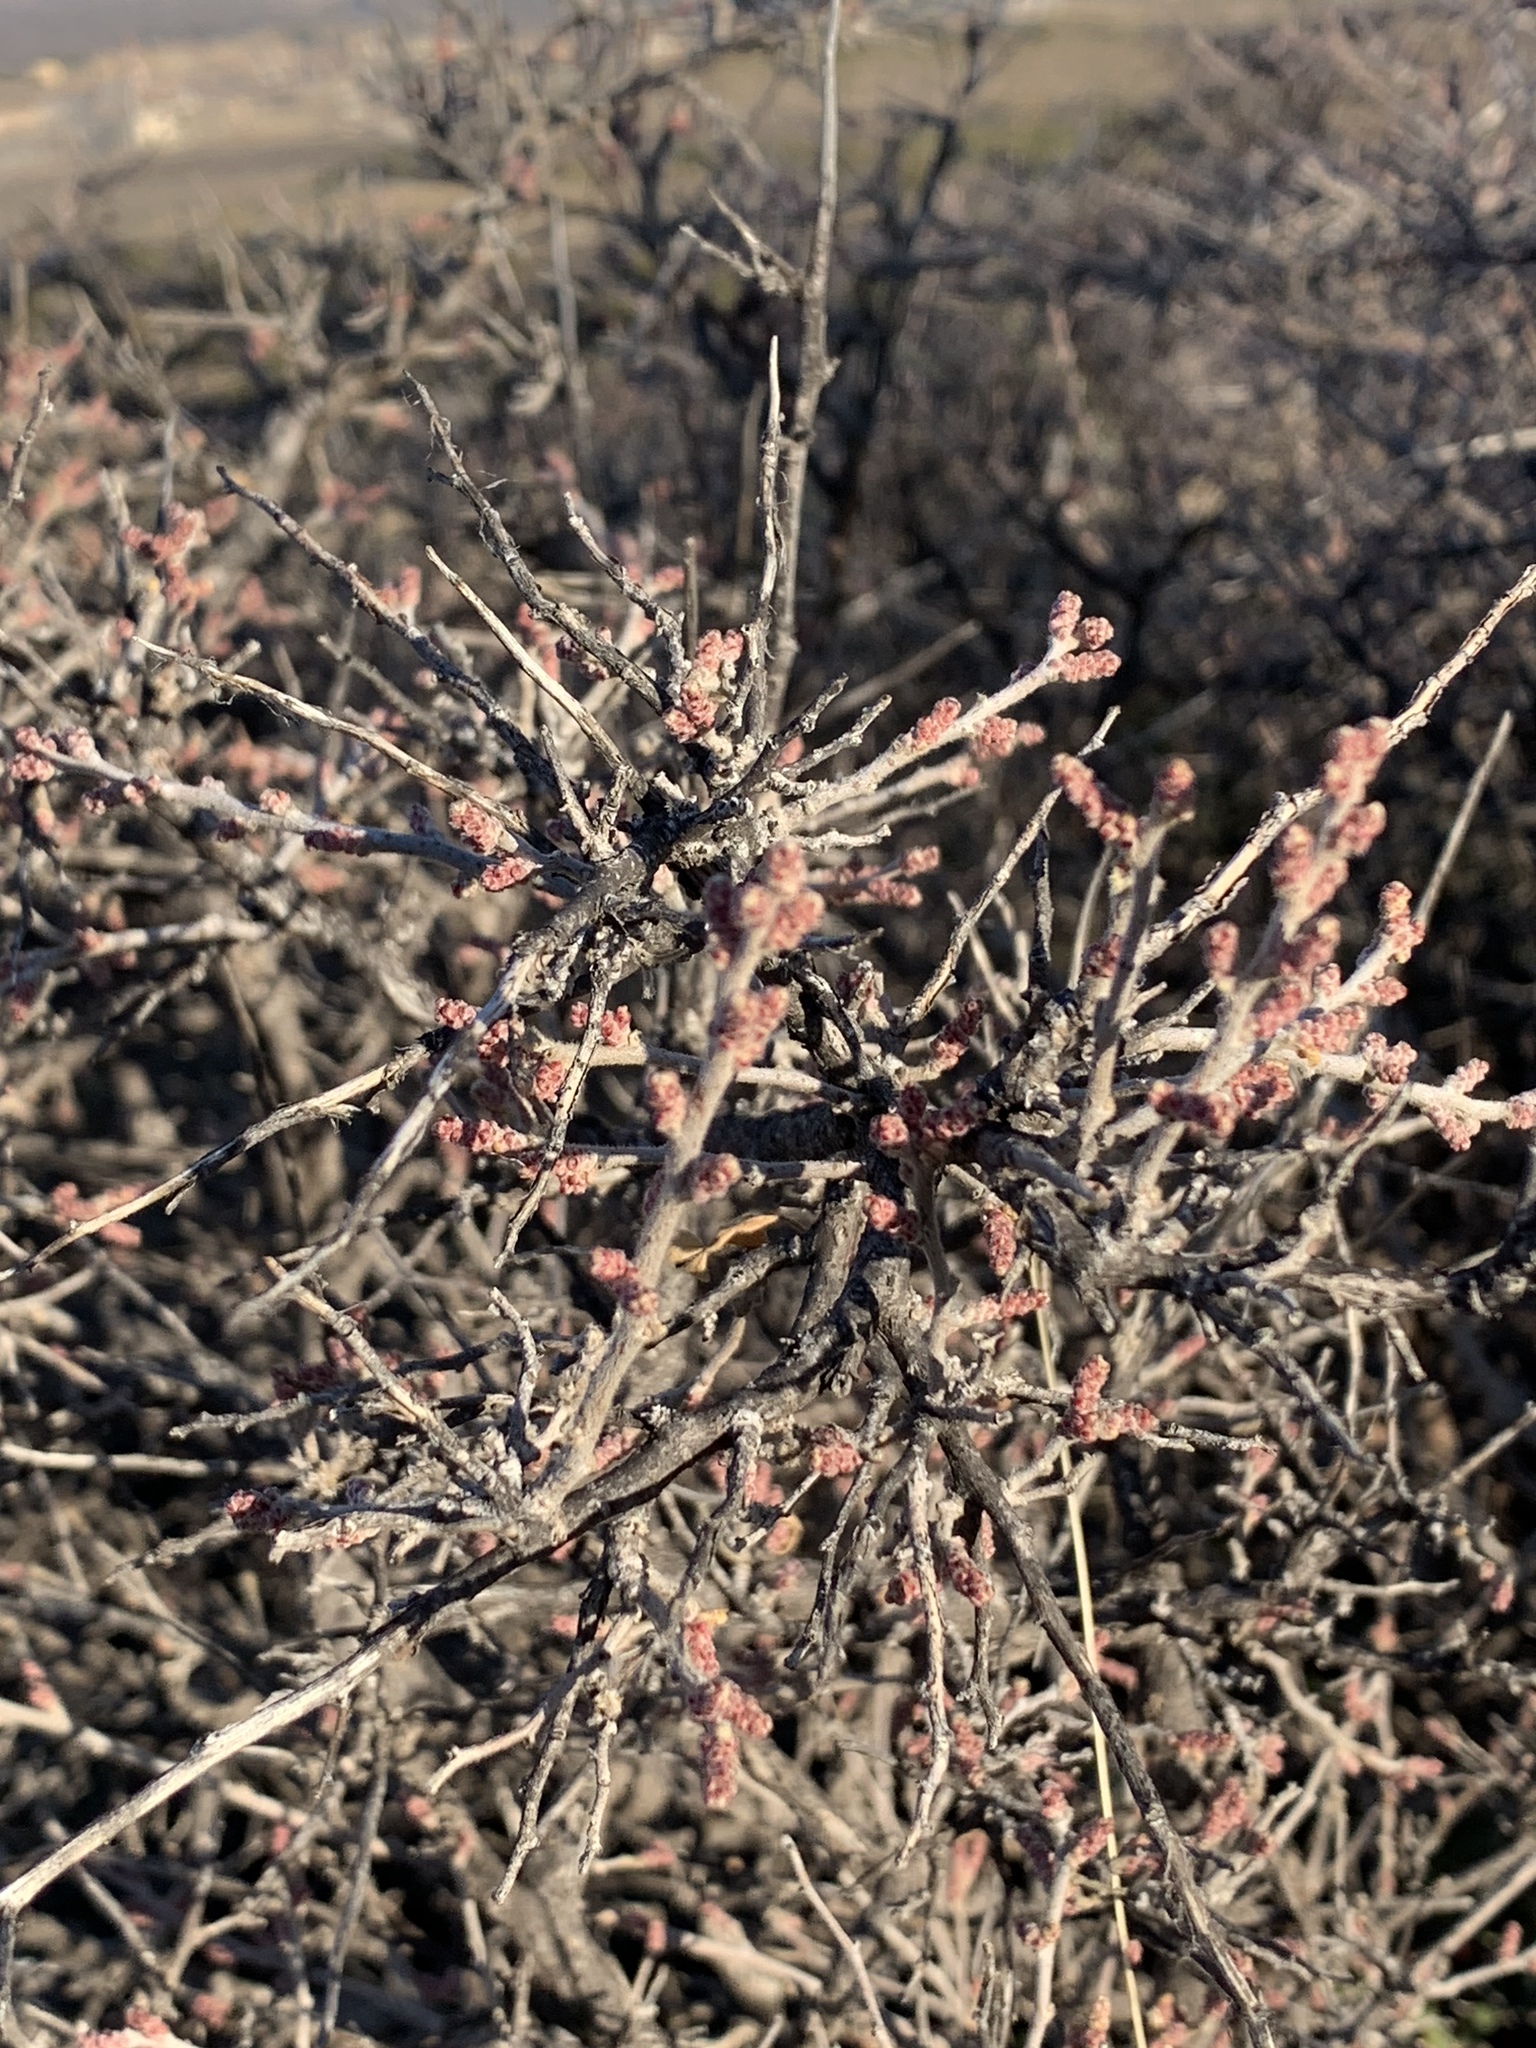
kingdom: Plantae
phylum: Tracheophyta
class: Magnoliopsida
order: Sapindales
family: Anacardiaceae
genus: Rhus
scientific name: Rhus microphylla
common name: Desert sumac
